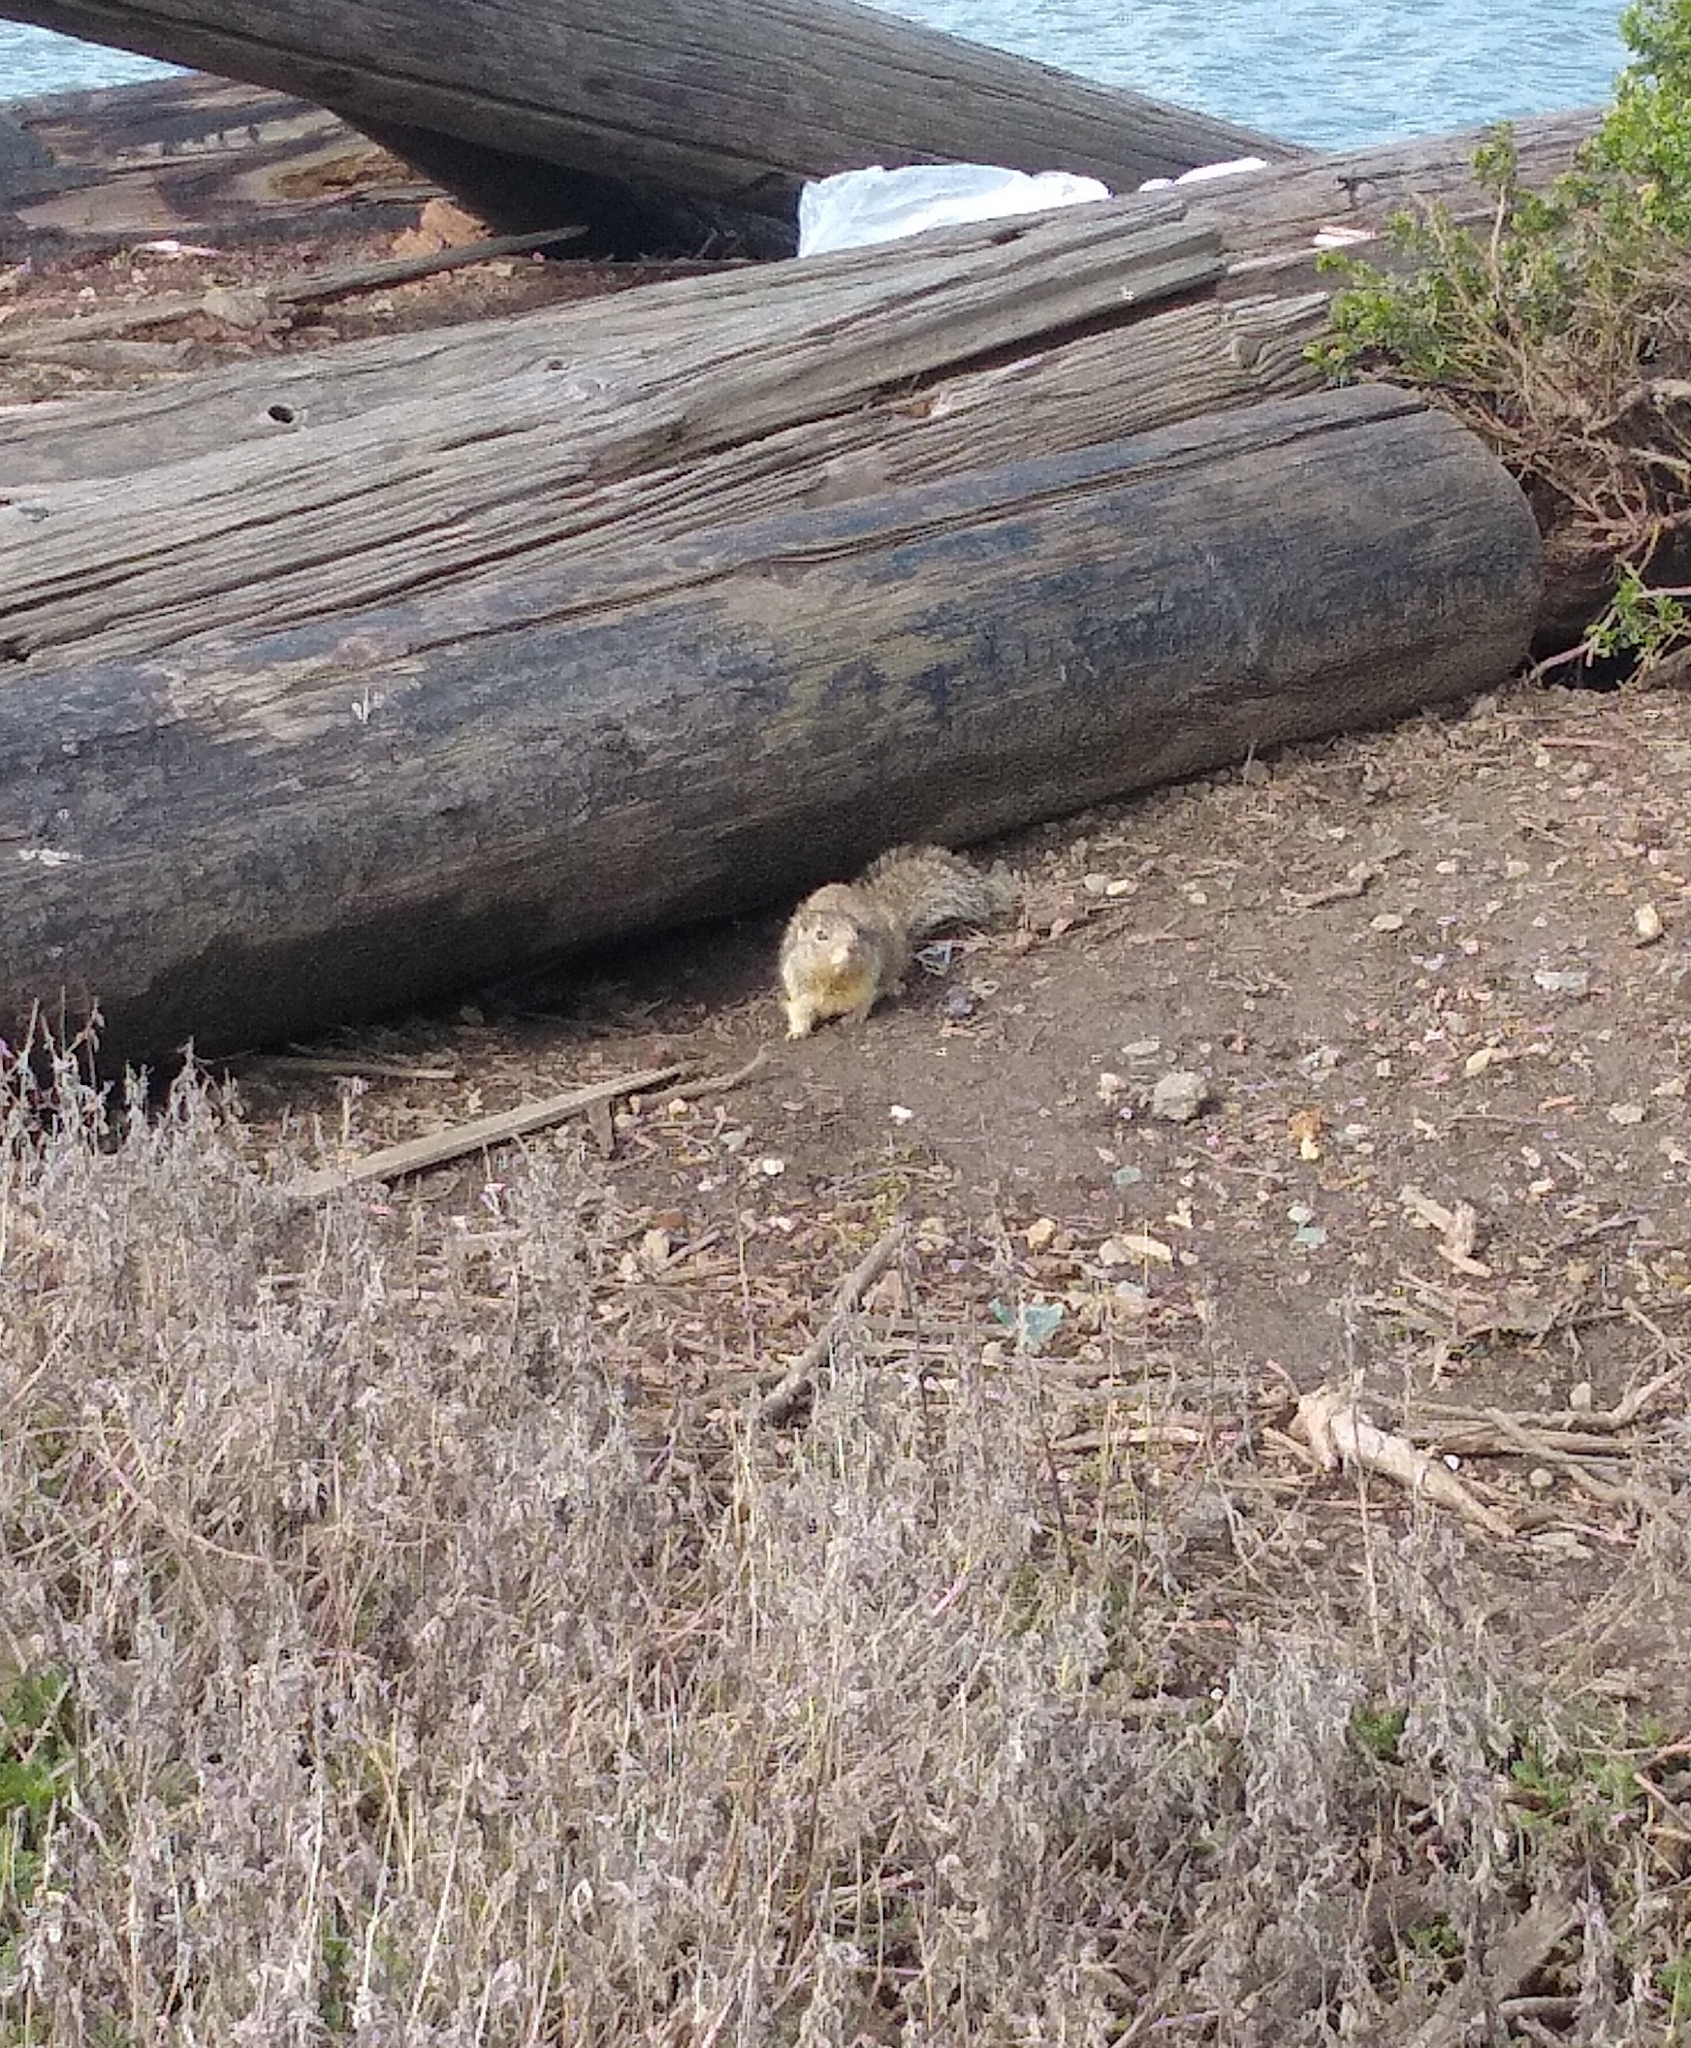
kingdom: Animalia
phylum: Chordata
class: Mammalia
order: Rodentia
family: Sciuridae
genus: Otospermophilus
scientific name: Otospermophilus beecheyi
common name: California ground squirrel
